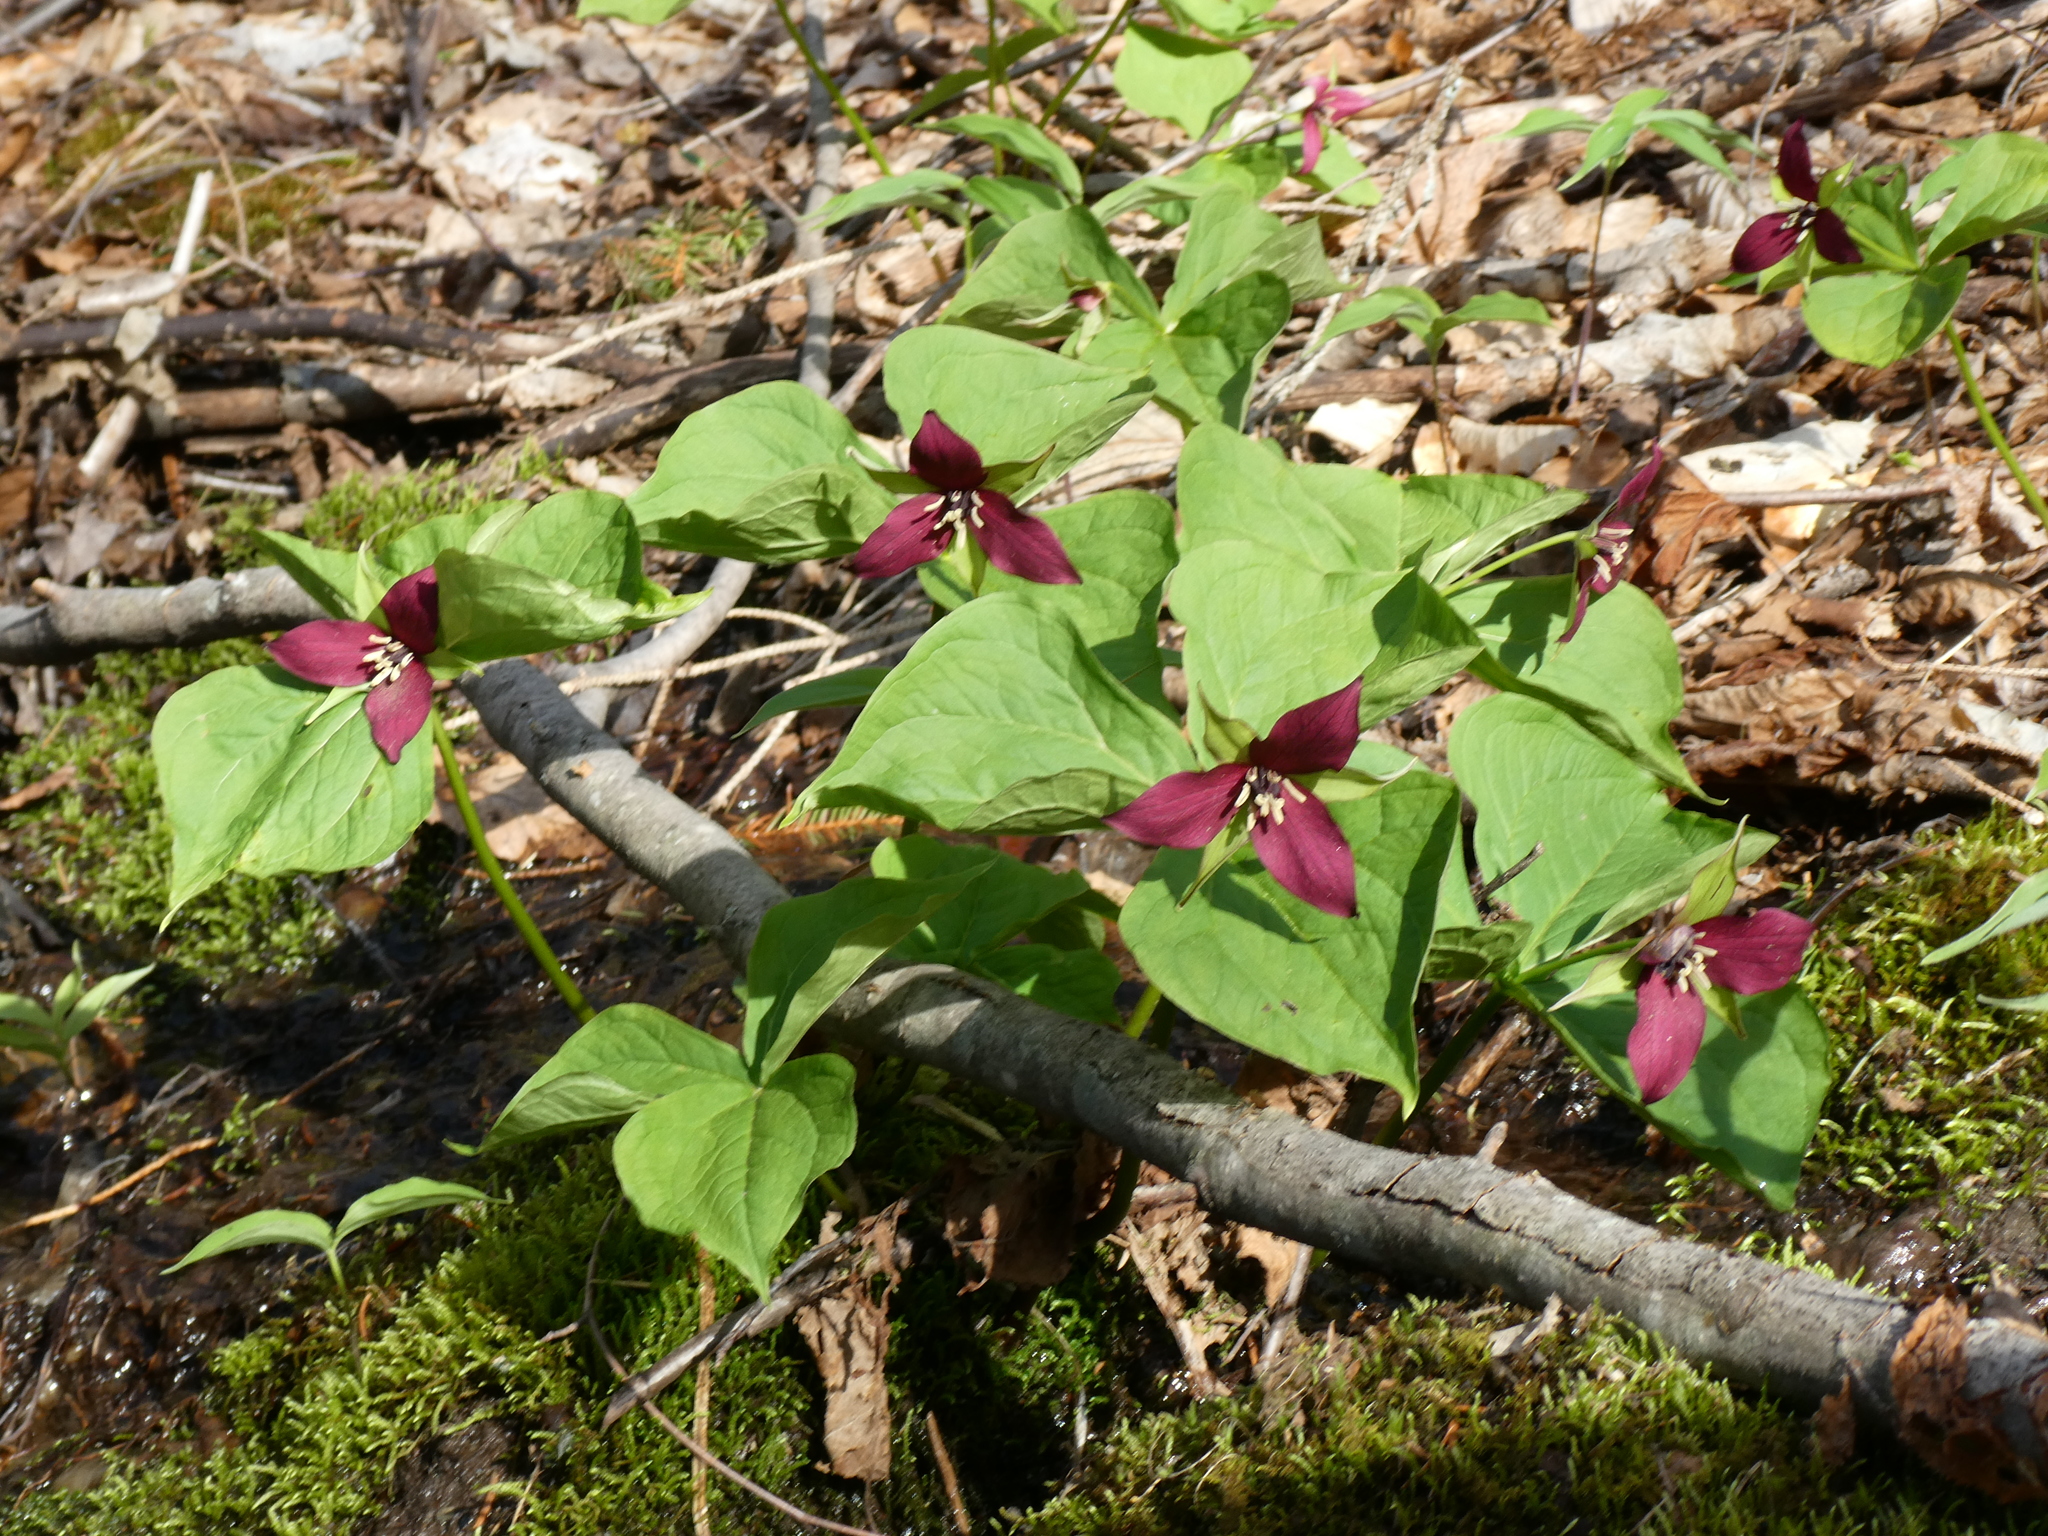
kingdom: Plantae
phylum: Tracheophyta
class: Liliopsida
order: Liliales
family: Melanthiaceae
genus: Trillium
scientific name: Trillium erectum
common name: Purple trillium
